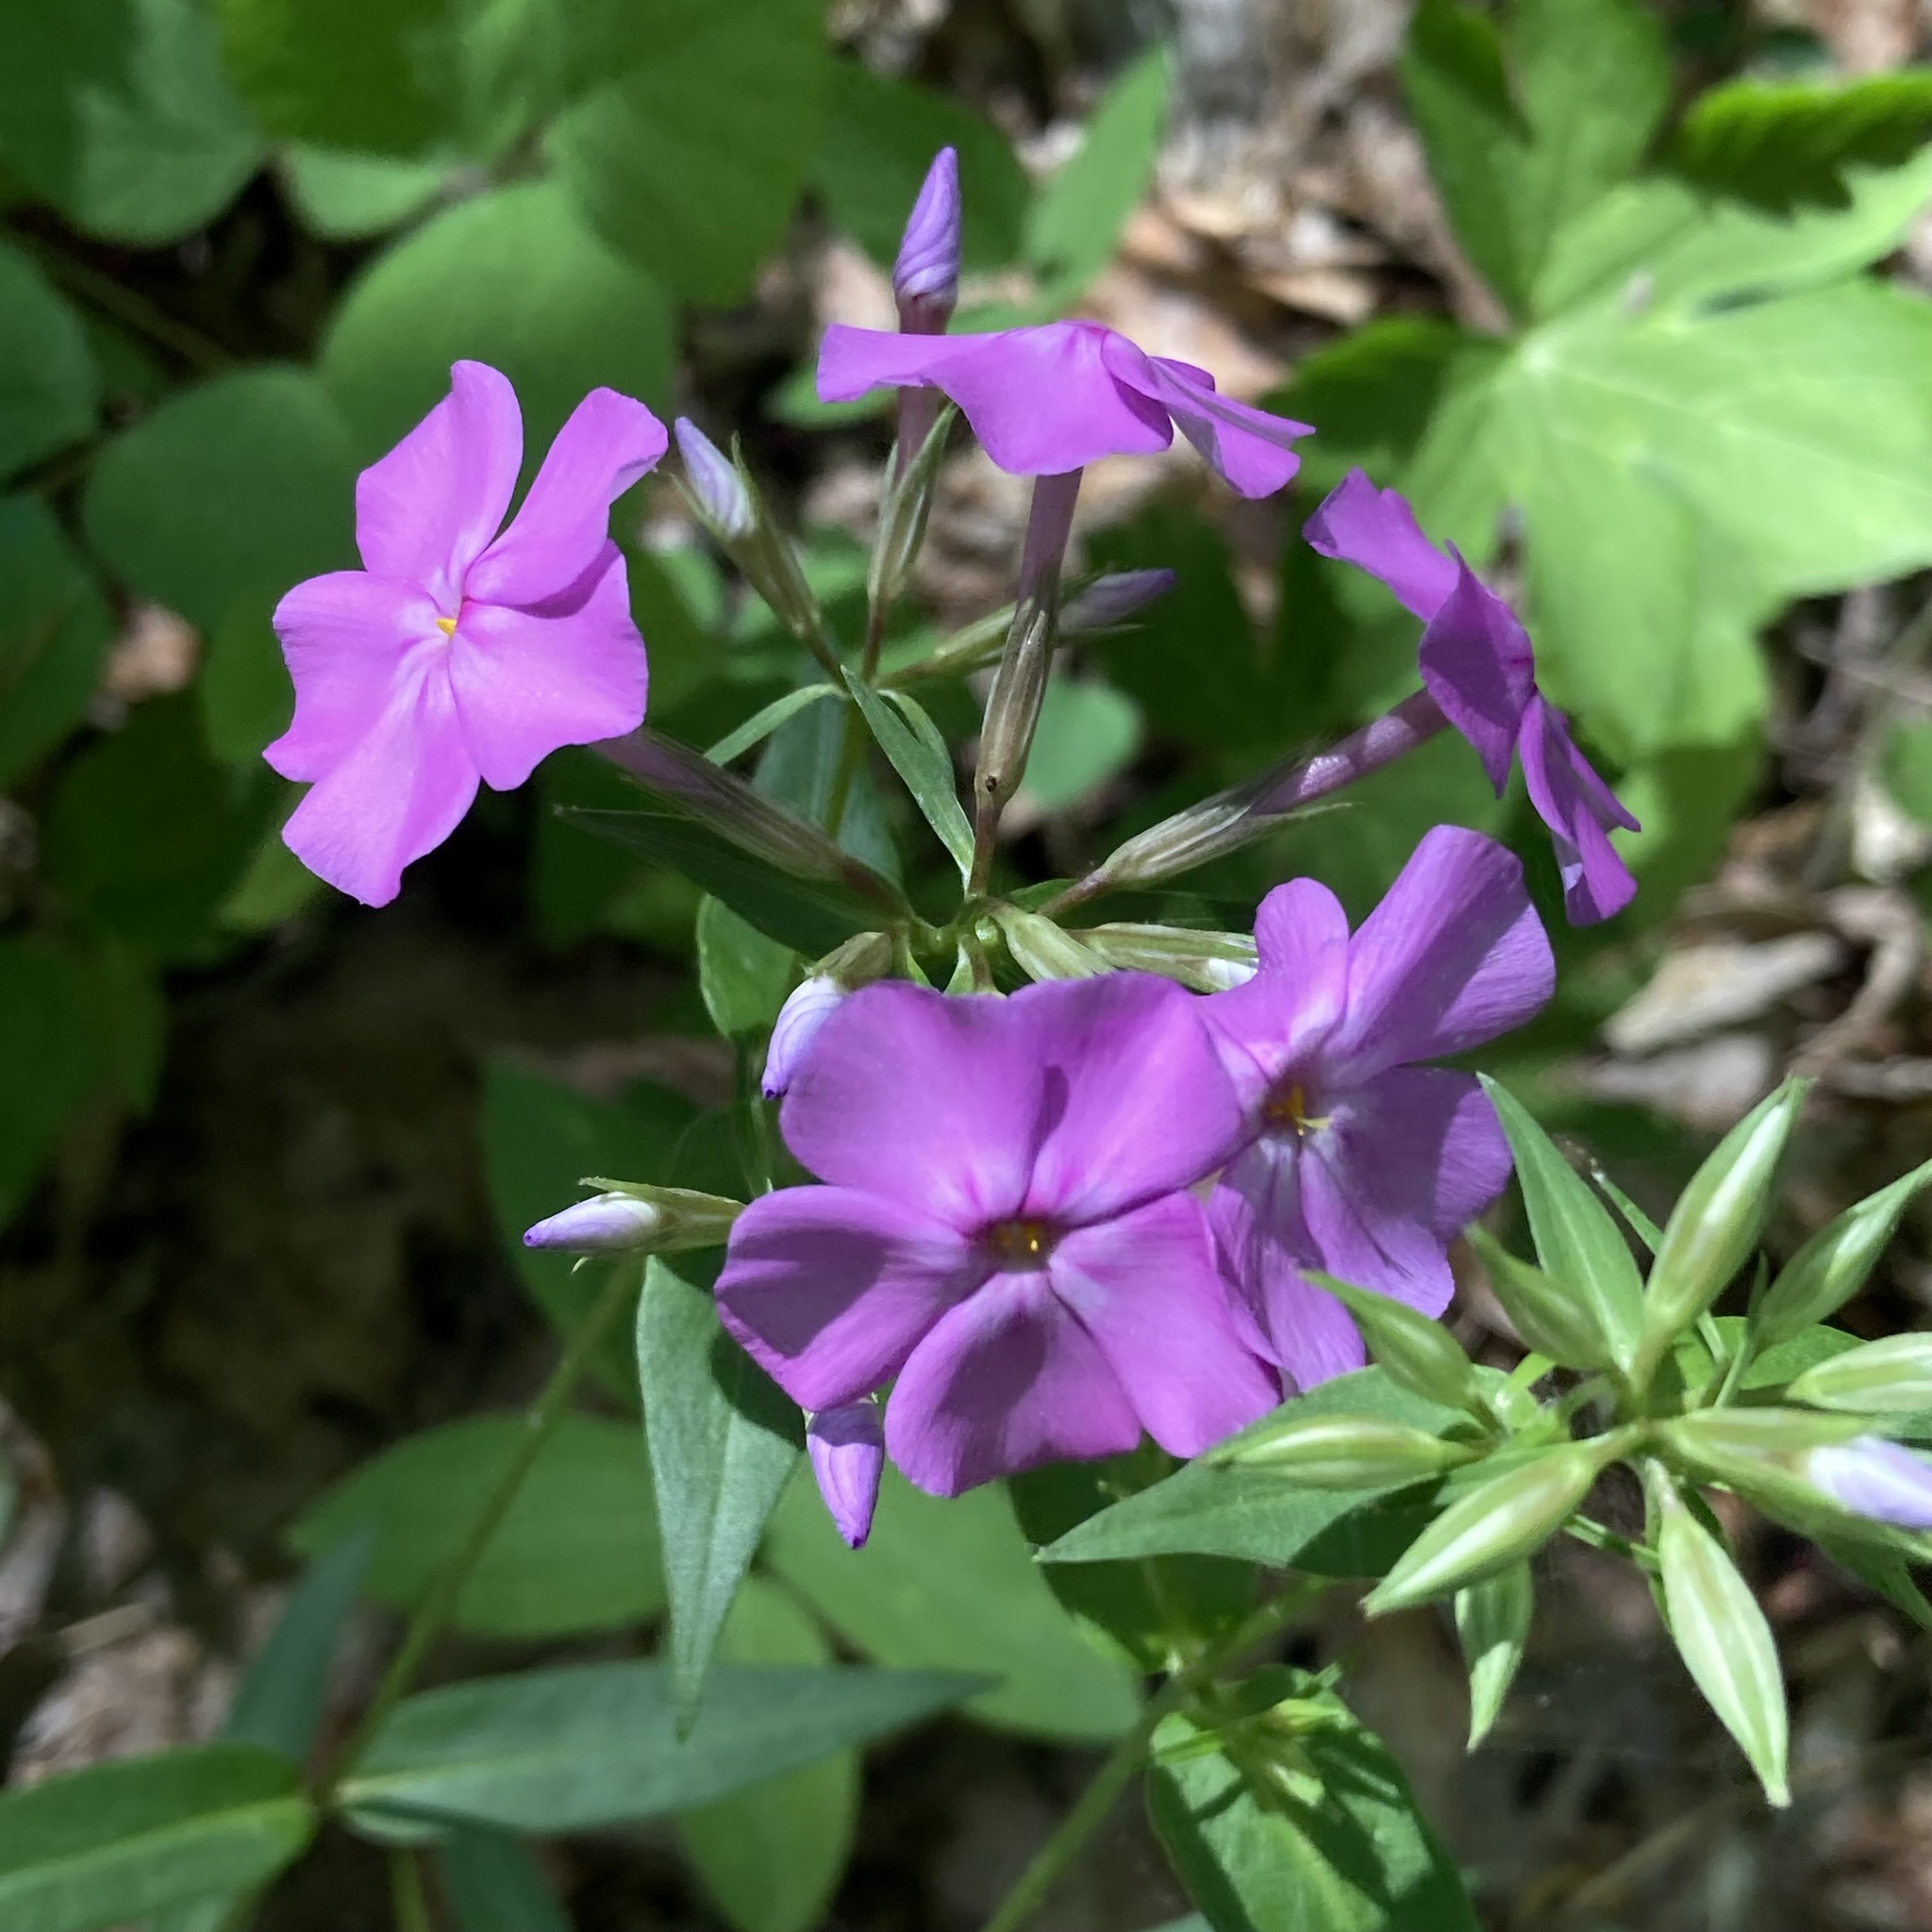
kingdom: Plantae
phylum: Tracheophyta
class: Magnoliopsida
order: Ericales
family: Polemoniaceae
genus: Phlox
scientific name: Phlox glaberrima
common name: Smooth phlox
